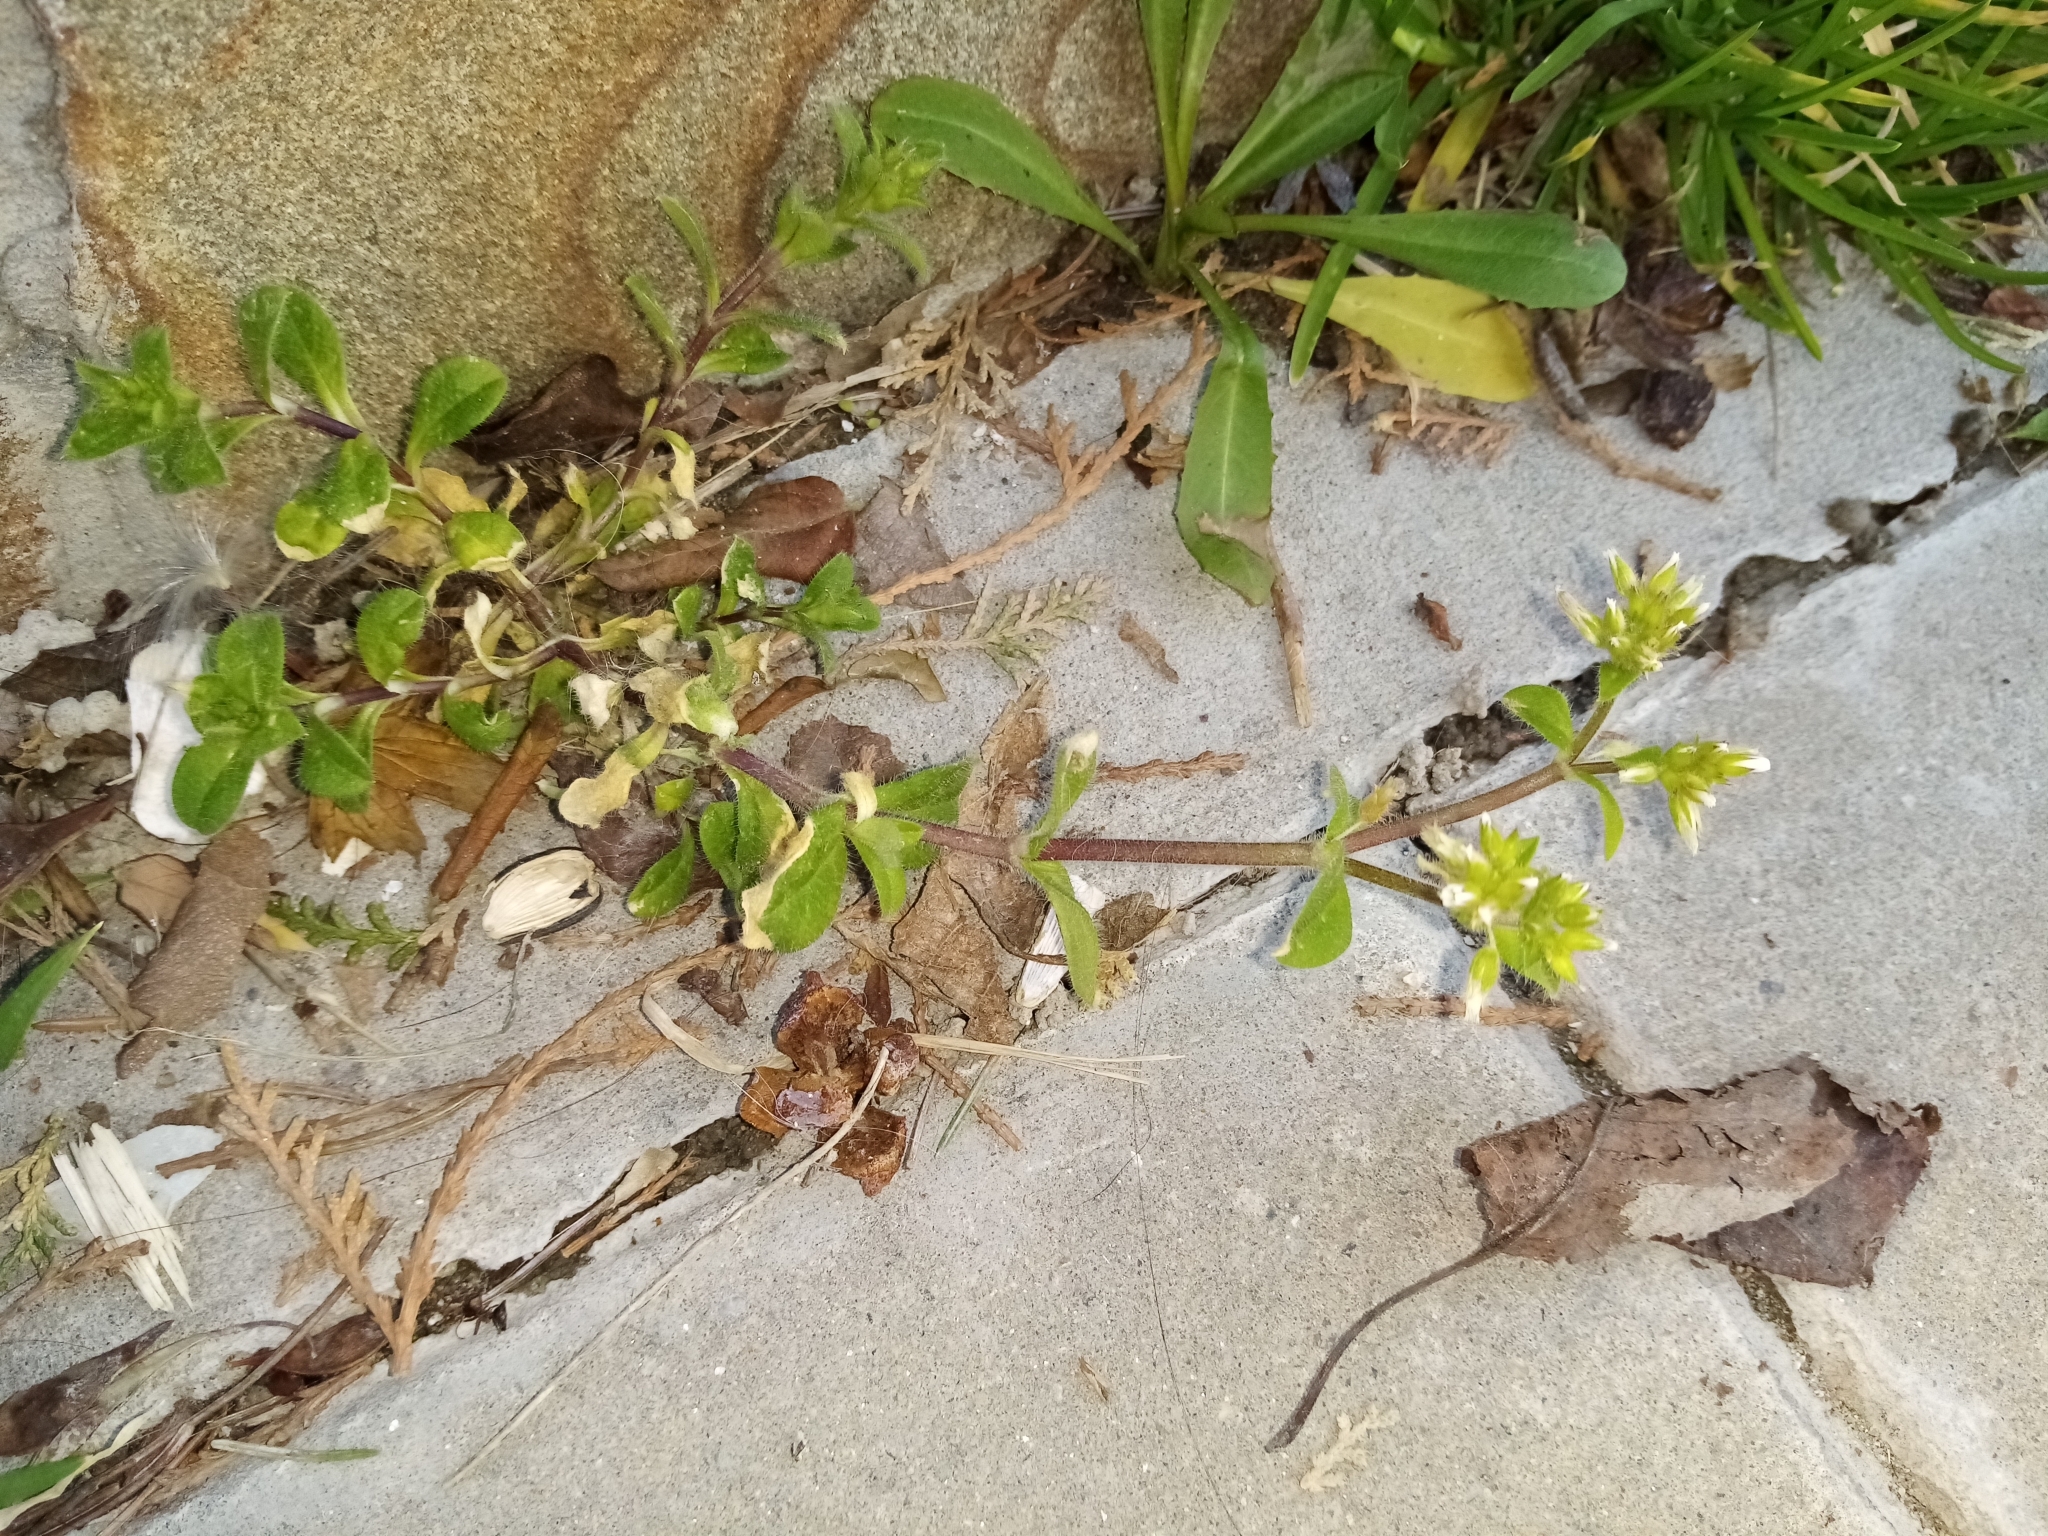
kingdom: Plantae
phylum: Tracheophyta
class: Magnoliopsida
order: Caryophyllales
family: Caryophyllaceae
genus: Cerastium
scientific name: Cerastium glomeratum
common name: Sticky chickweed
